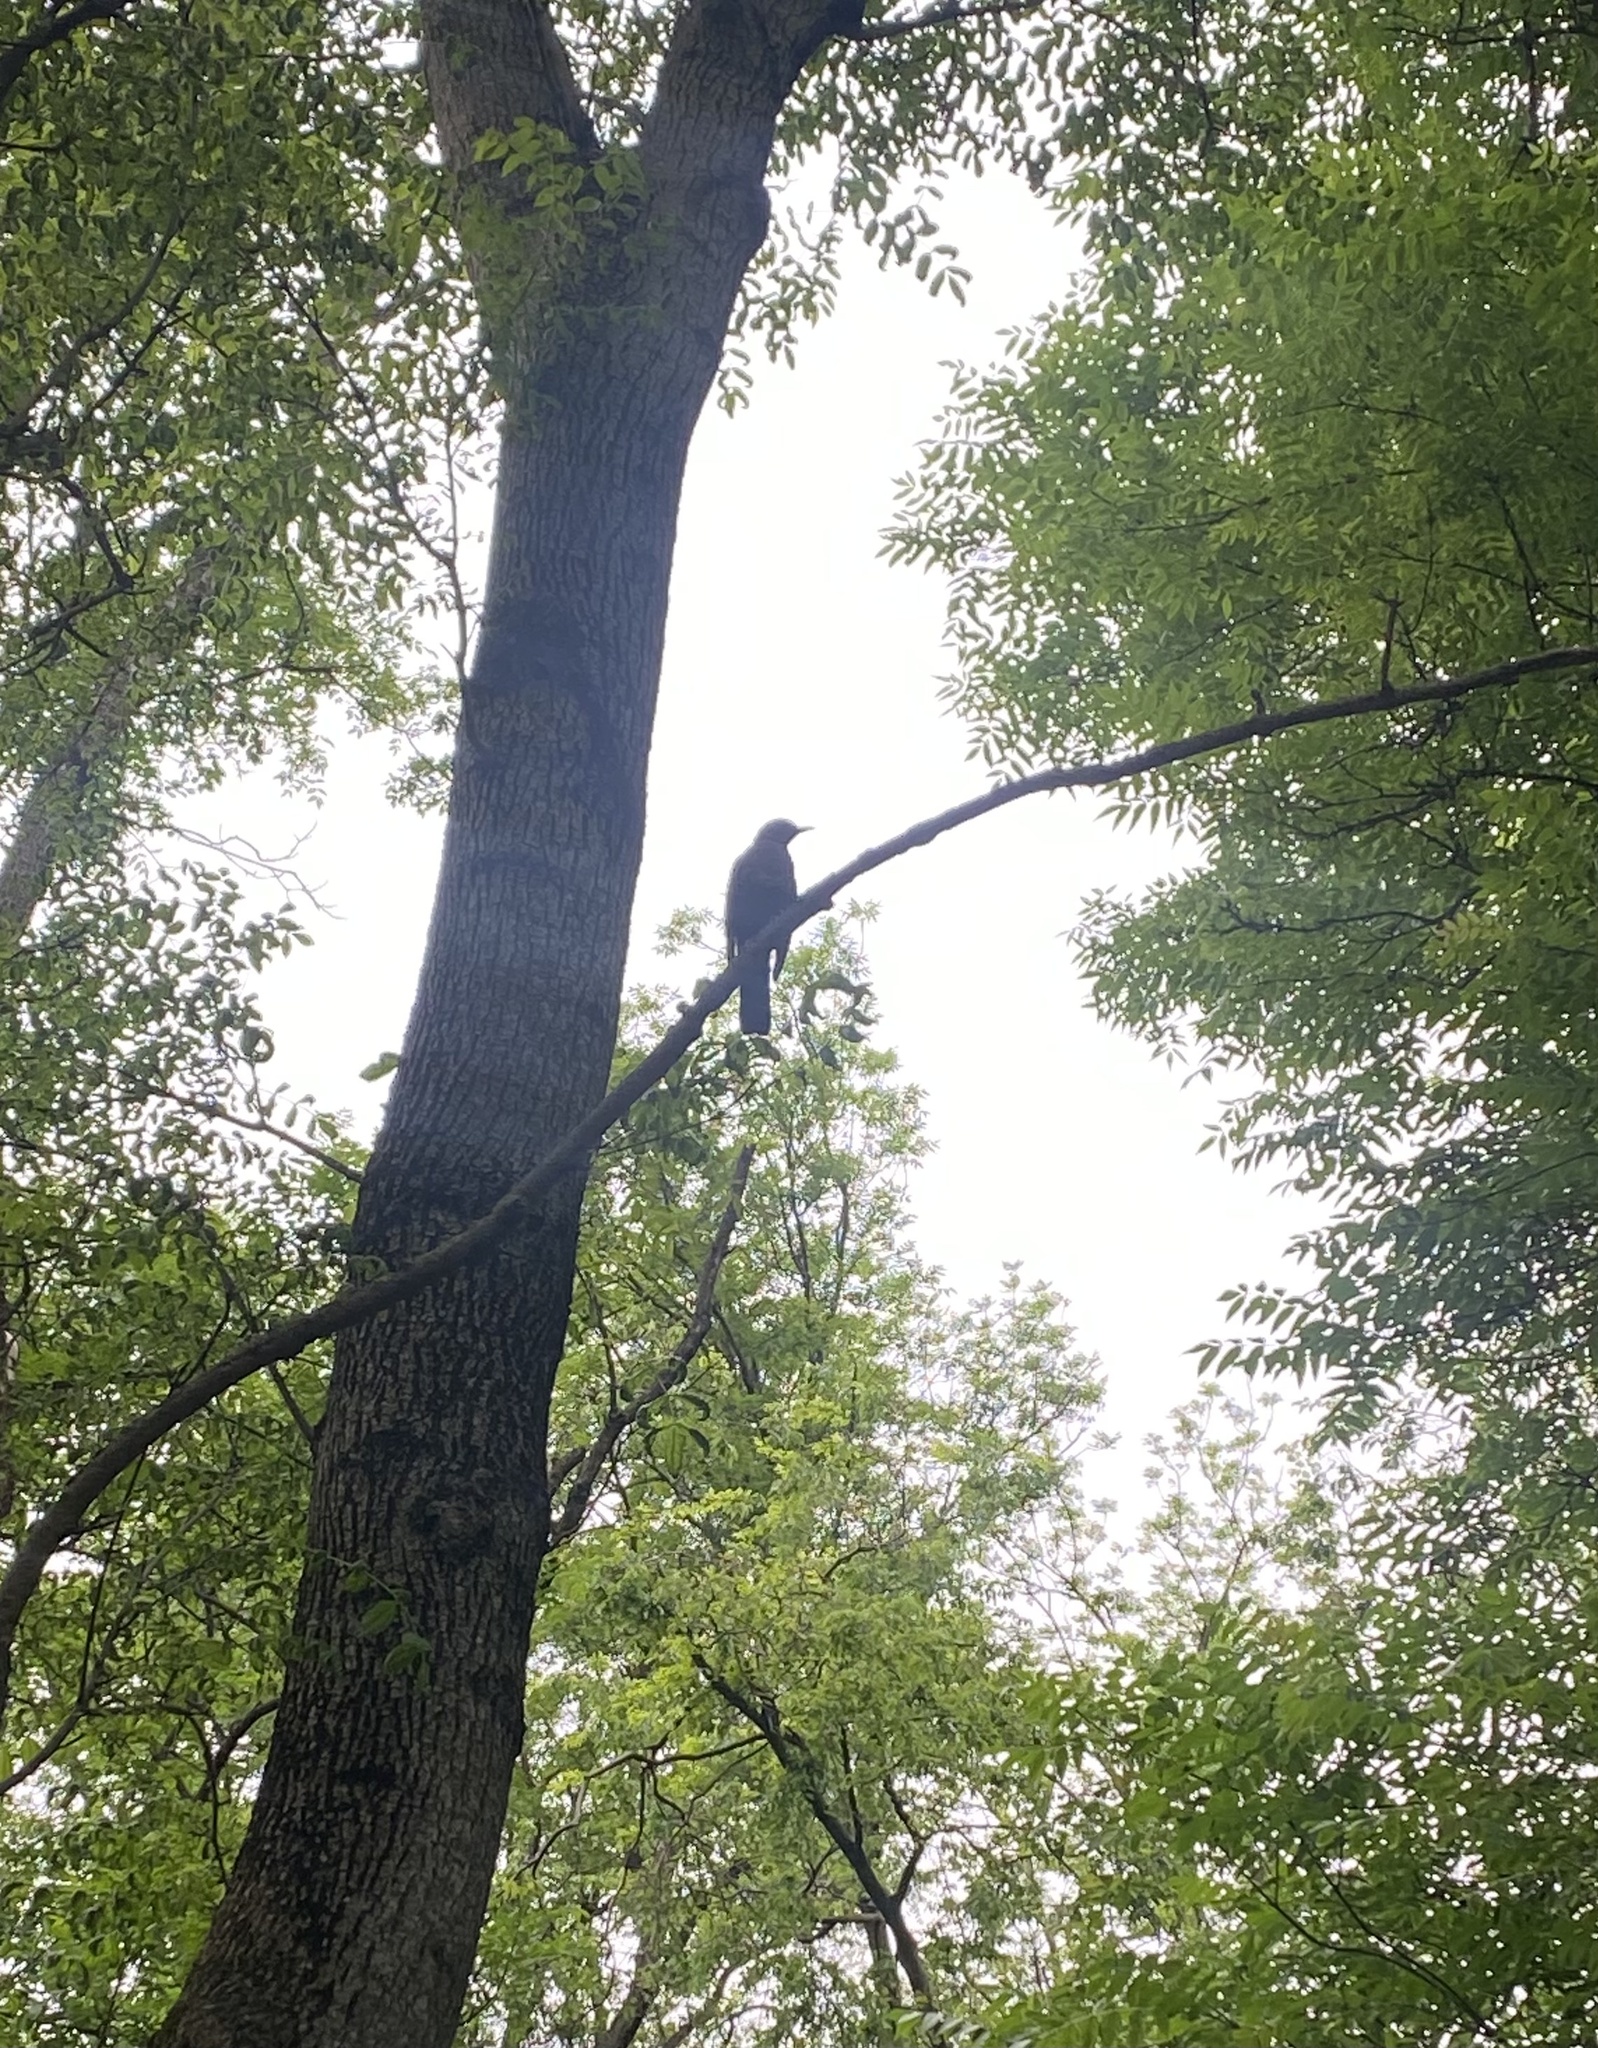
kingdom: Animalia
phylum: Chordata
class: Aves
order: Passeriformes
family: Turdidae
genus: Turdus
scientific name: Turdus merula
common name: Common blackbird
